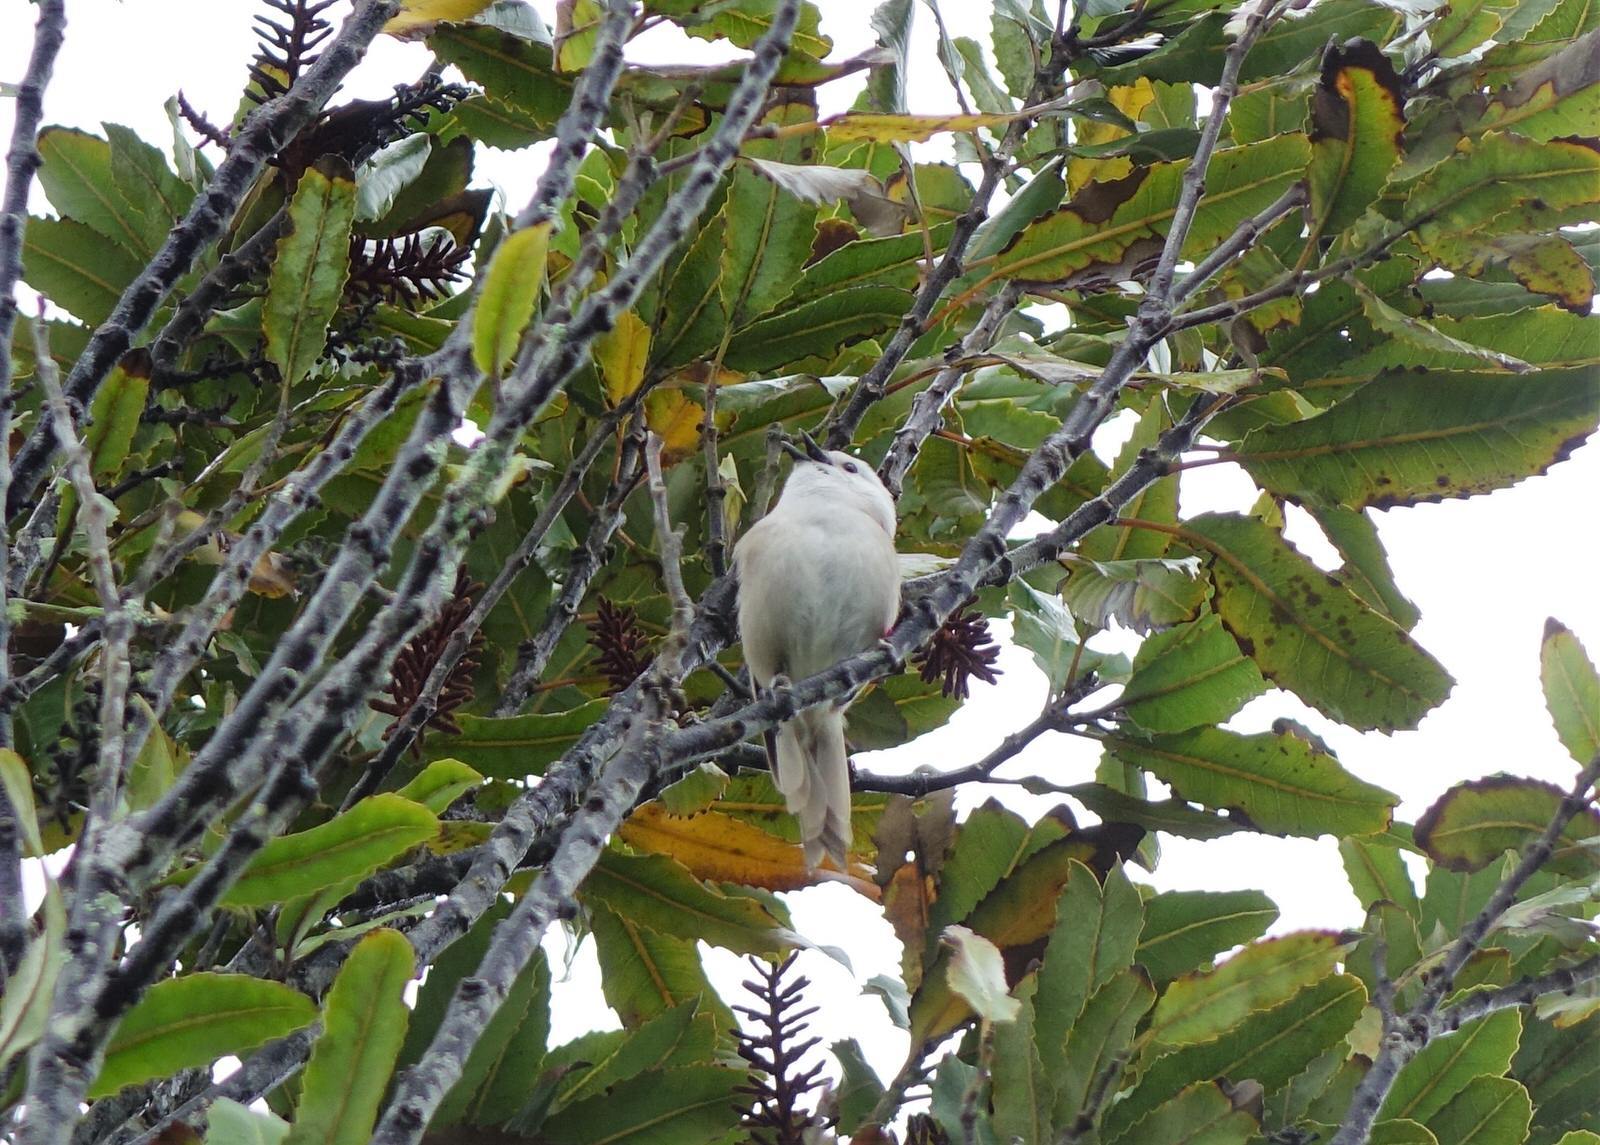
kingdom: Animalia
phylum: Chordata
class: Aves
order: Passeriformes
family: Acanthizidae
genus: Mohoua
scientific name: Mohoua albicilla
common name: Whitehead
